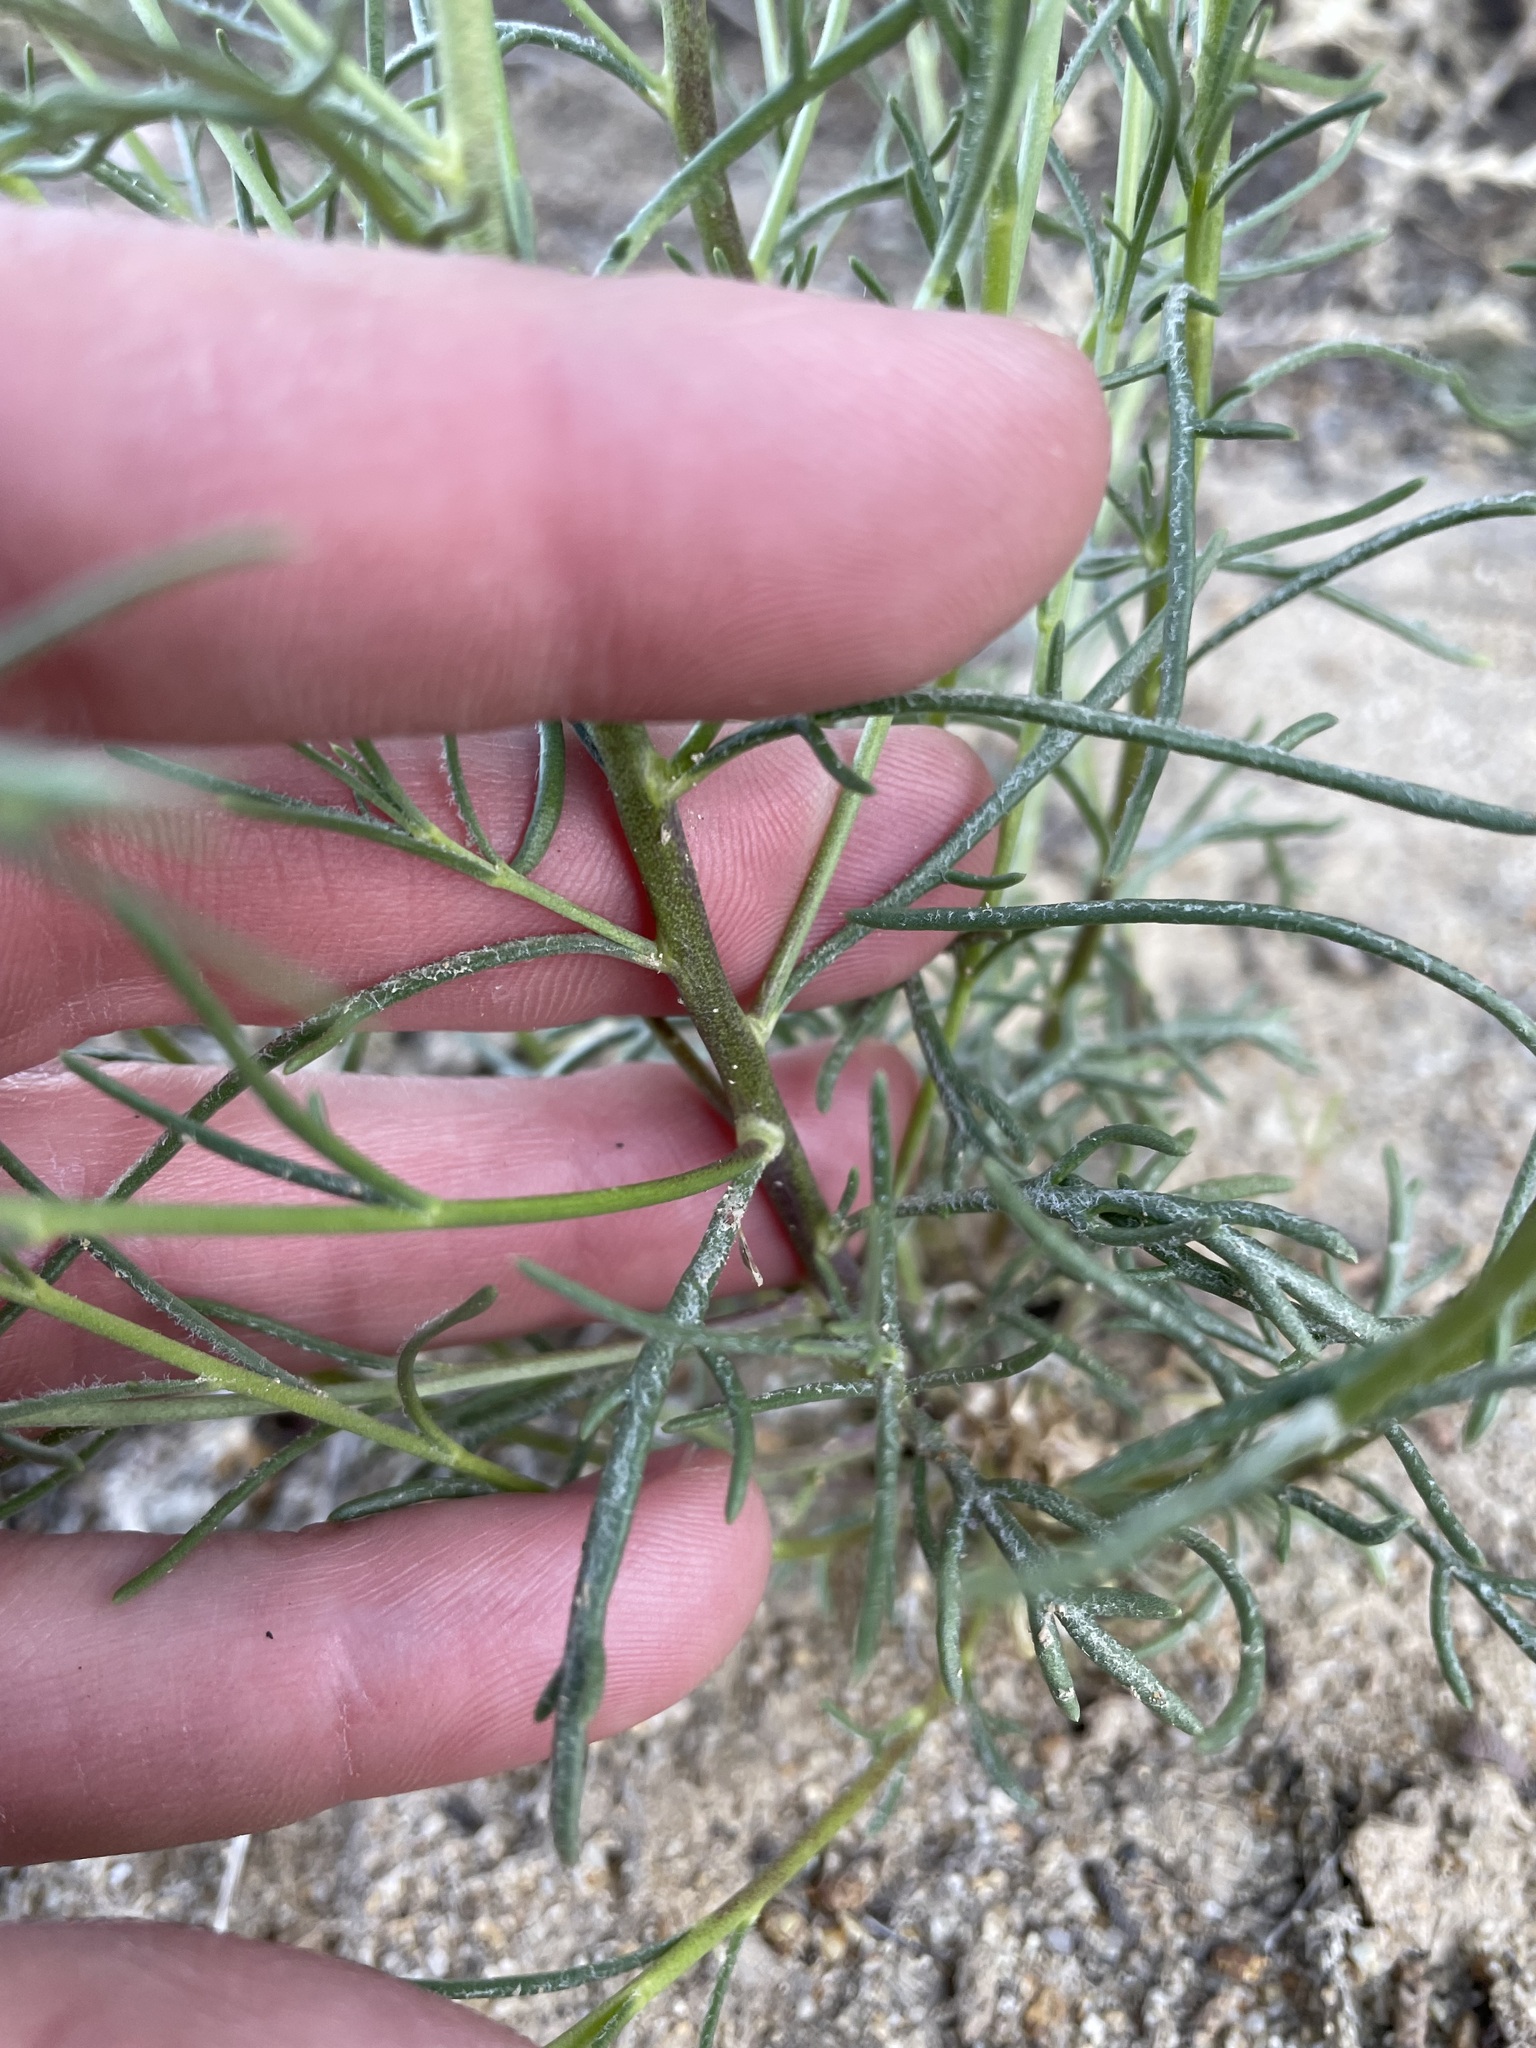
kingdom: Plantae
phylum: Tracheophyta
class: Magnoliopsida
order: Ericales
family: Polemoniaceae
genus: Ipomopsis
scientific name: Ipomopsis laxiflora
